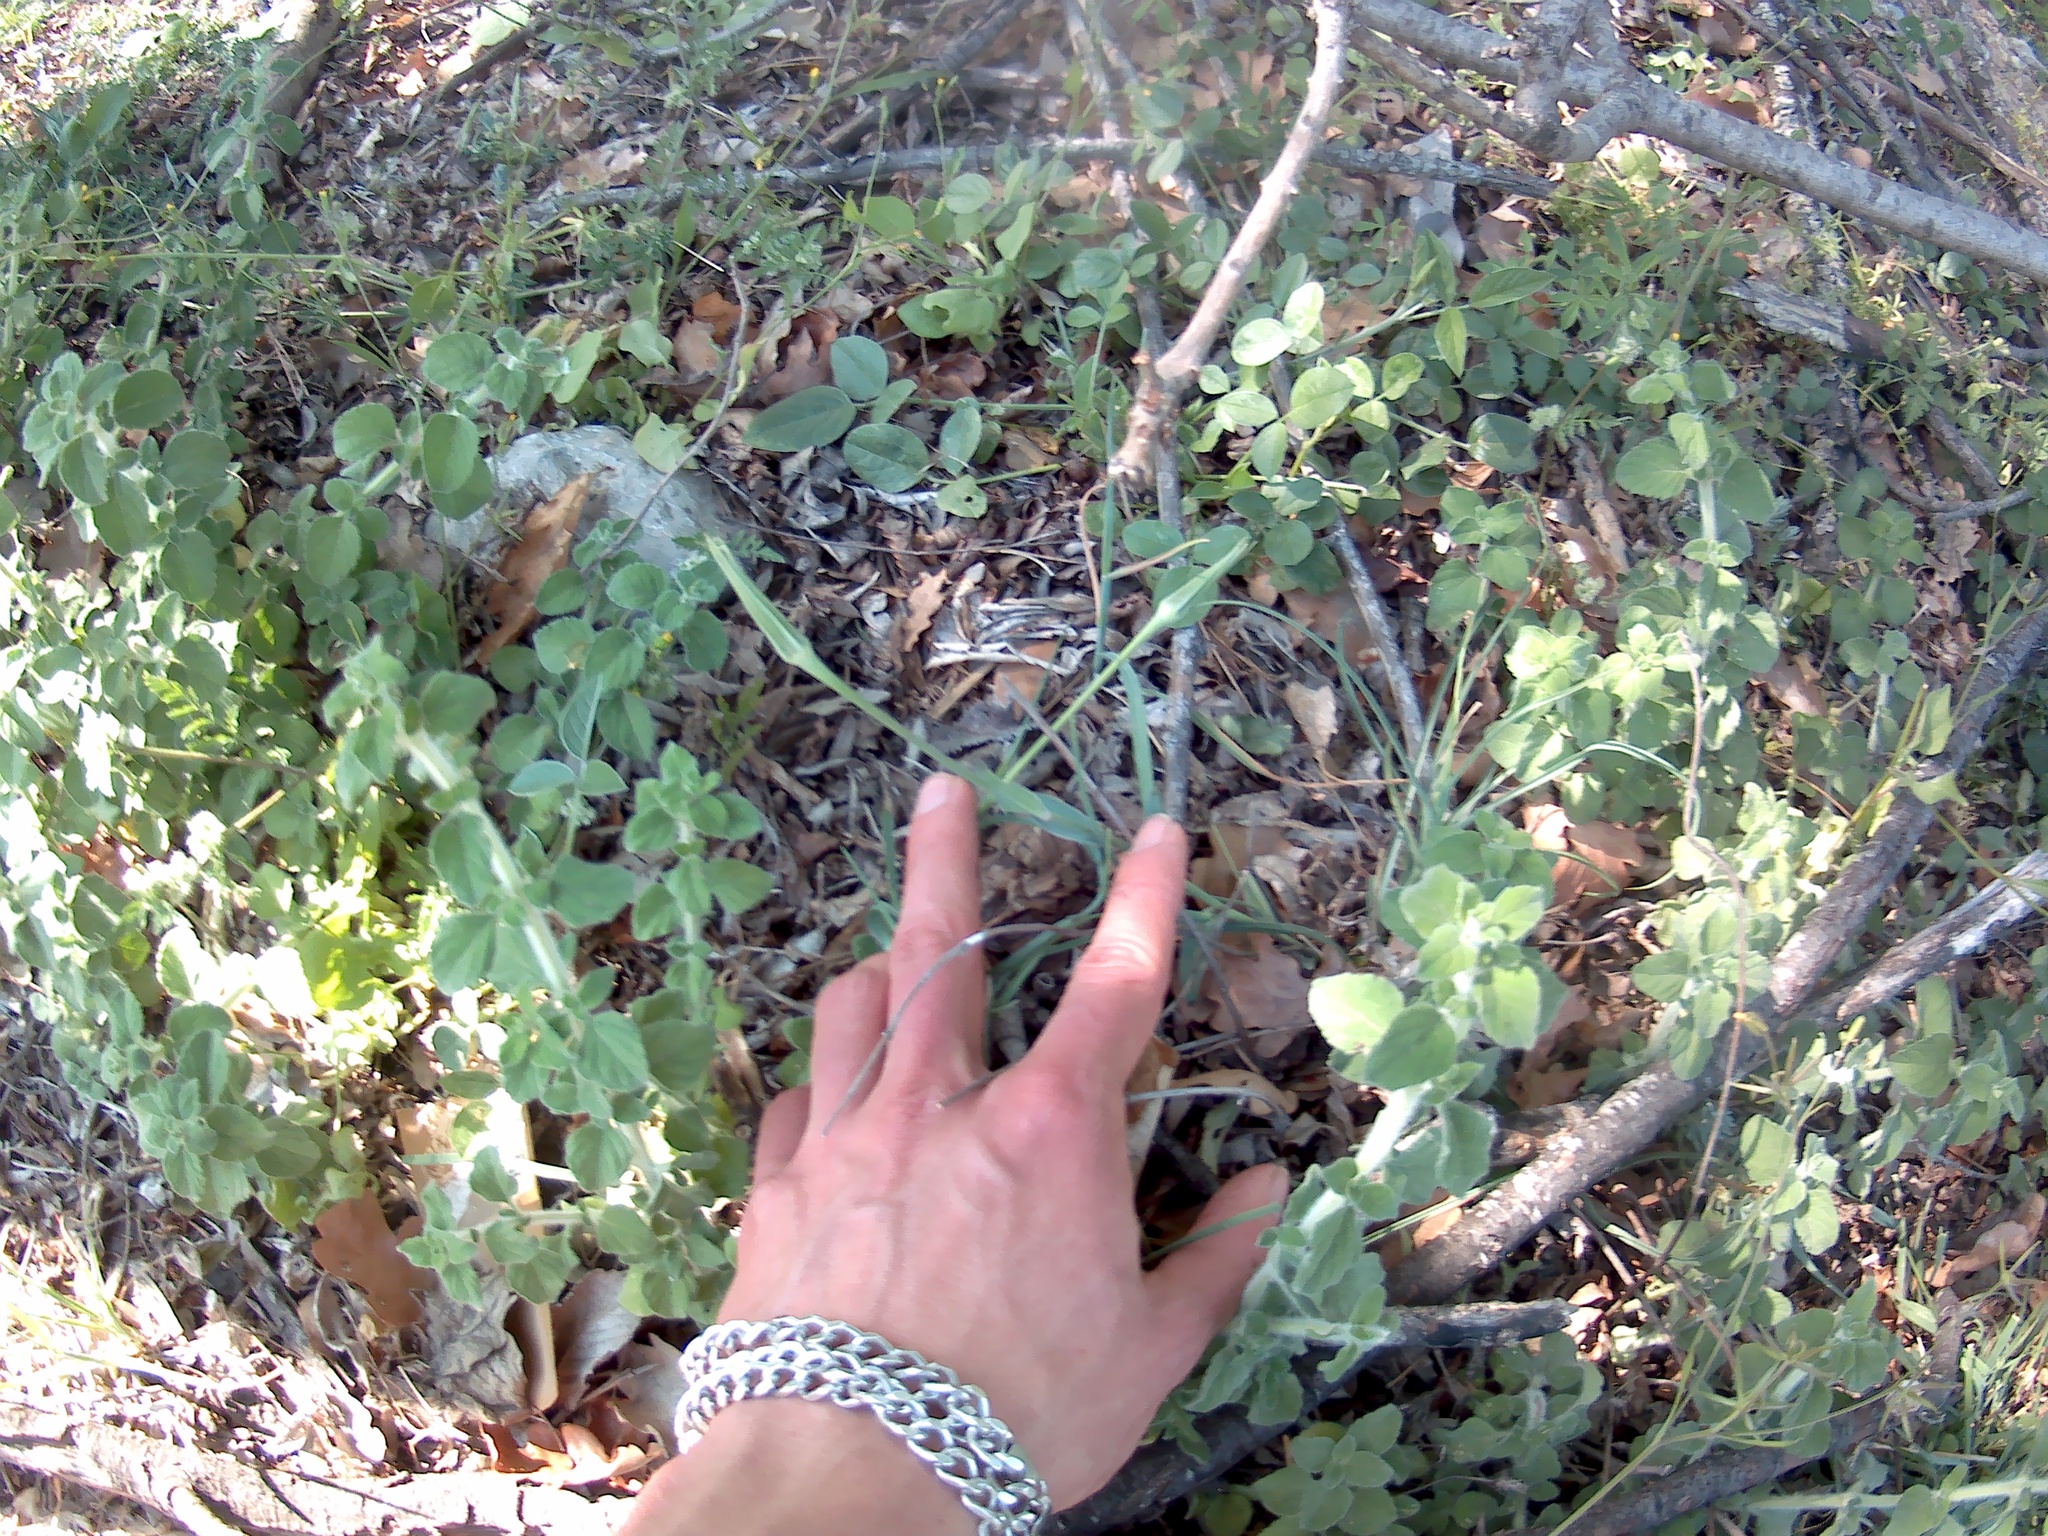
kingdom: Plantae
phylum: Tracheophyta
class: Magnoliopsida
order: Asterales
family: Asteraceae
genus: Tragopogon
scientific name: Tragopogon dubius
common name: Yellow salsify
